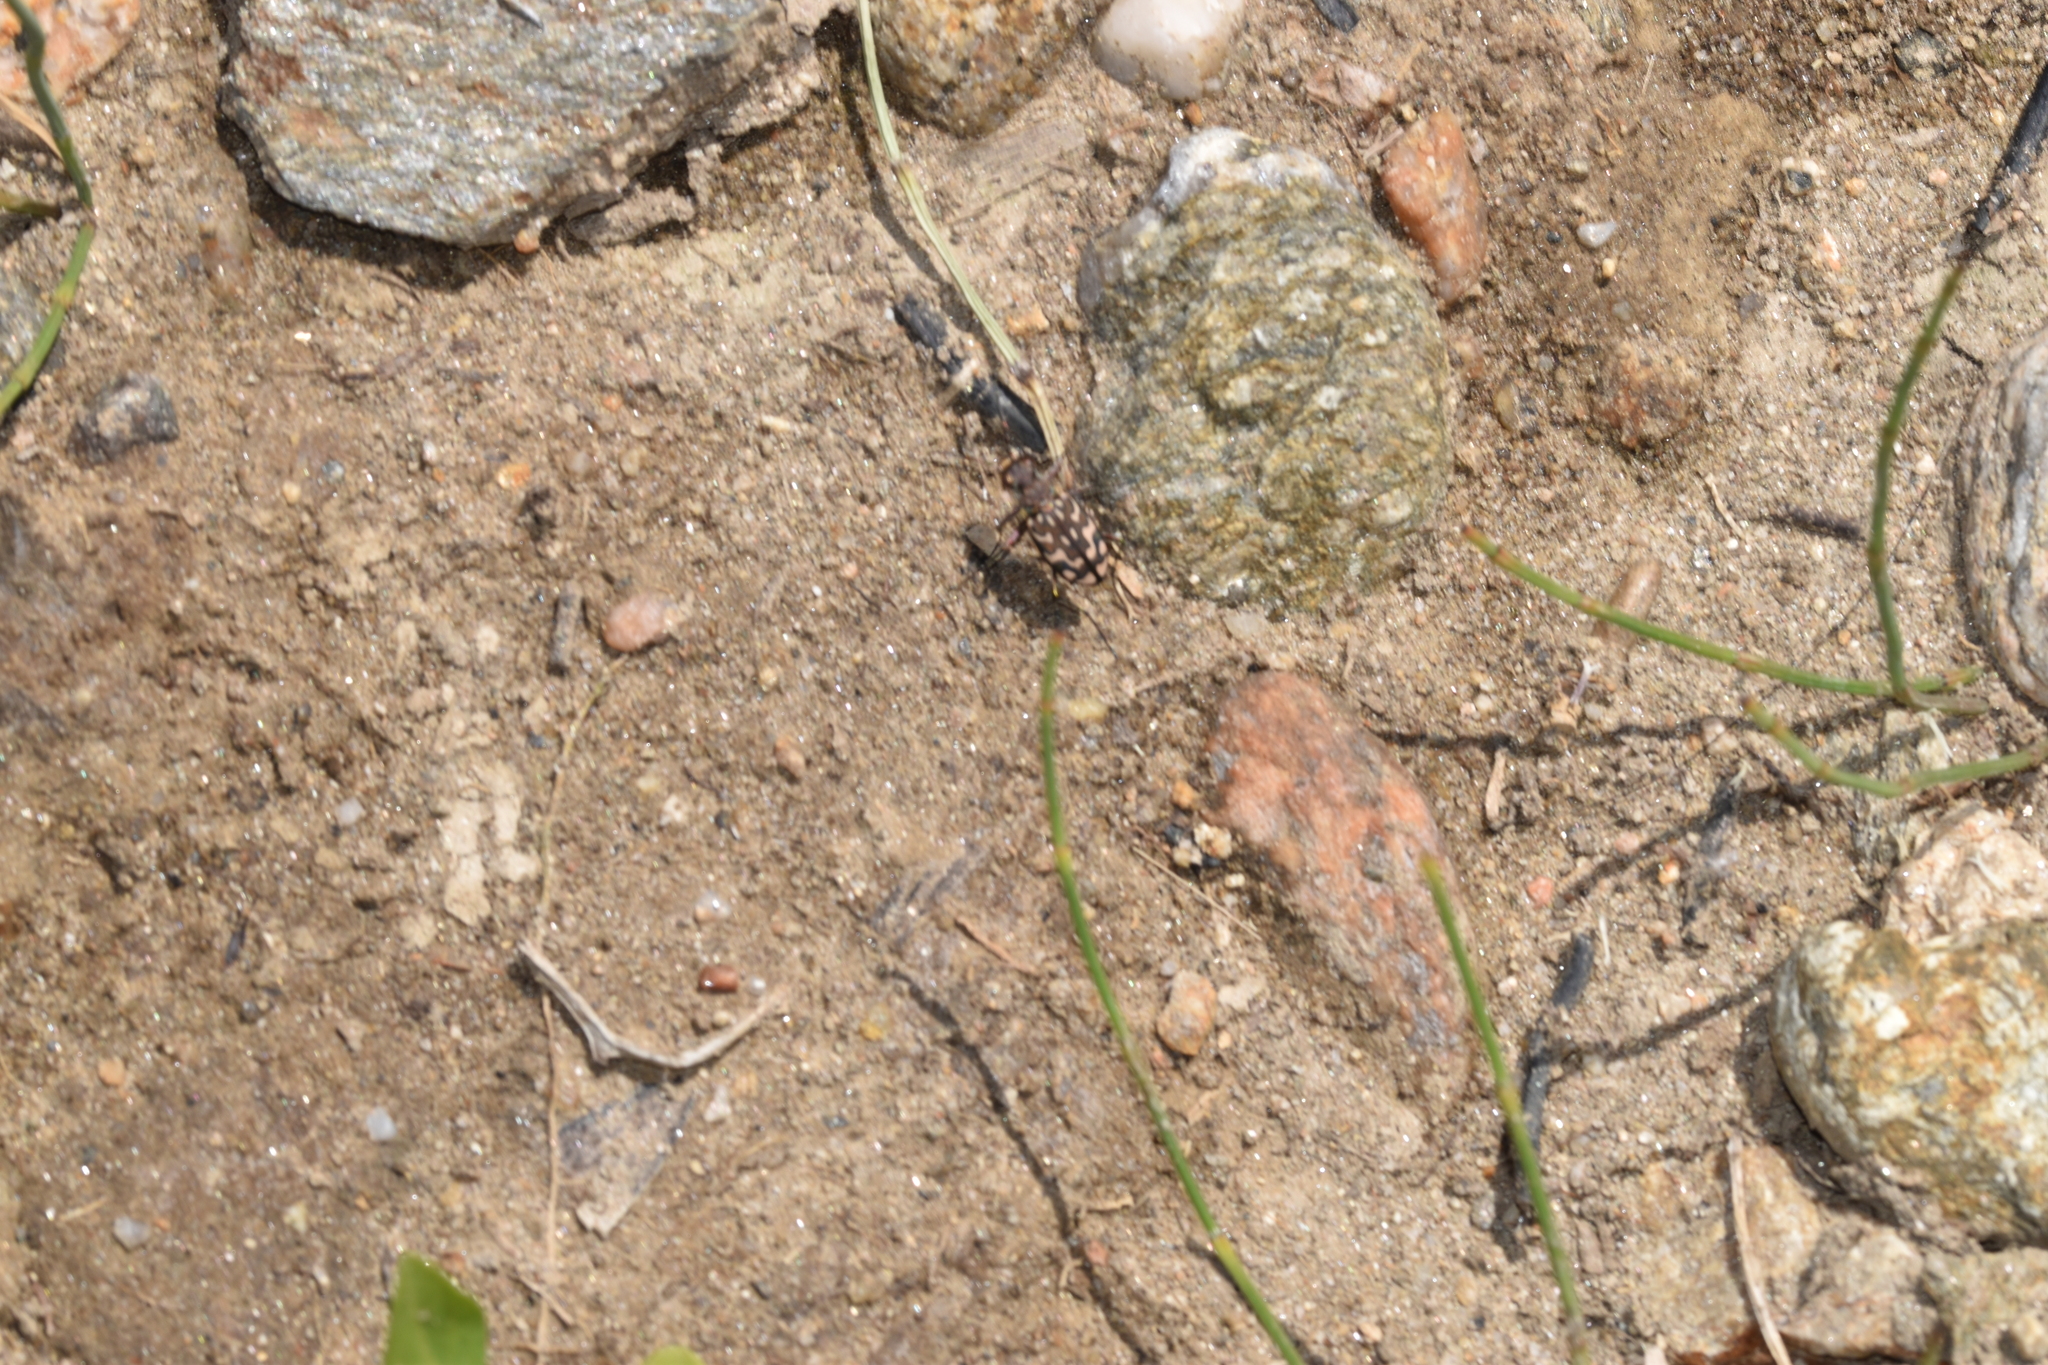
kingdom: Animalia
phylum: Arthropoda
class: Insecta
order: Coleoptera
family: Carabidae
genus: Lophyra
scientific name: Lophyra flexuosa
